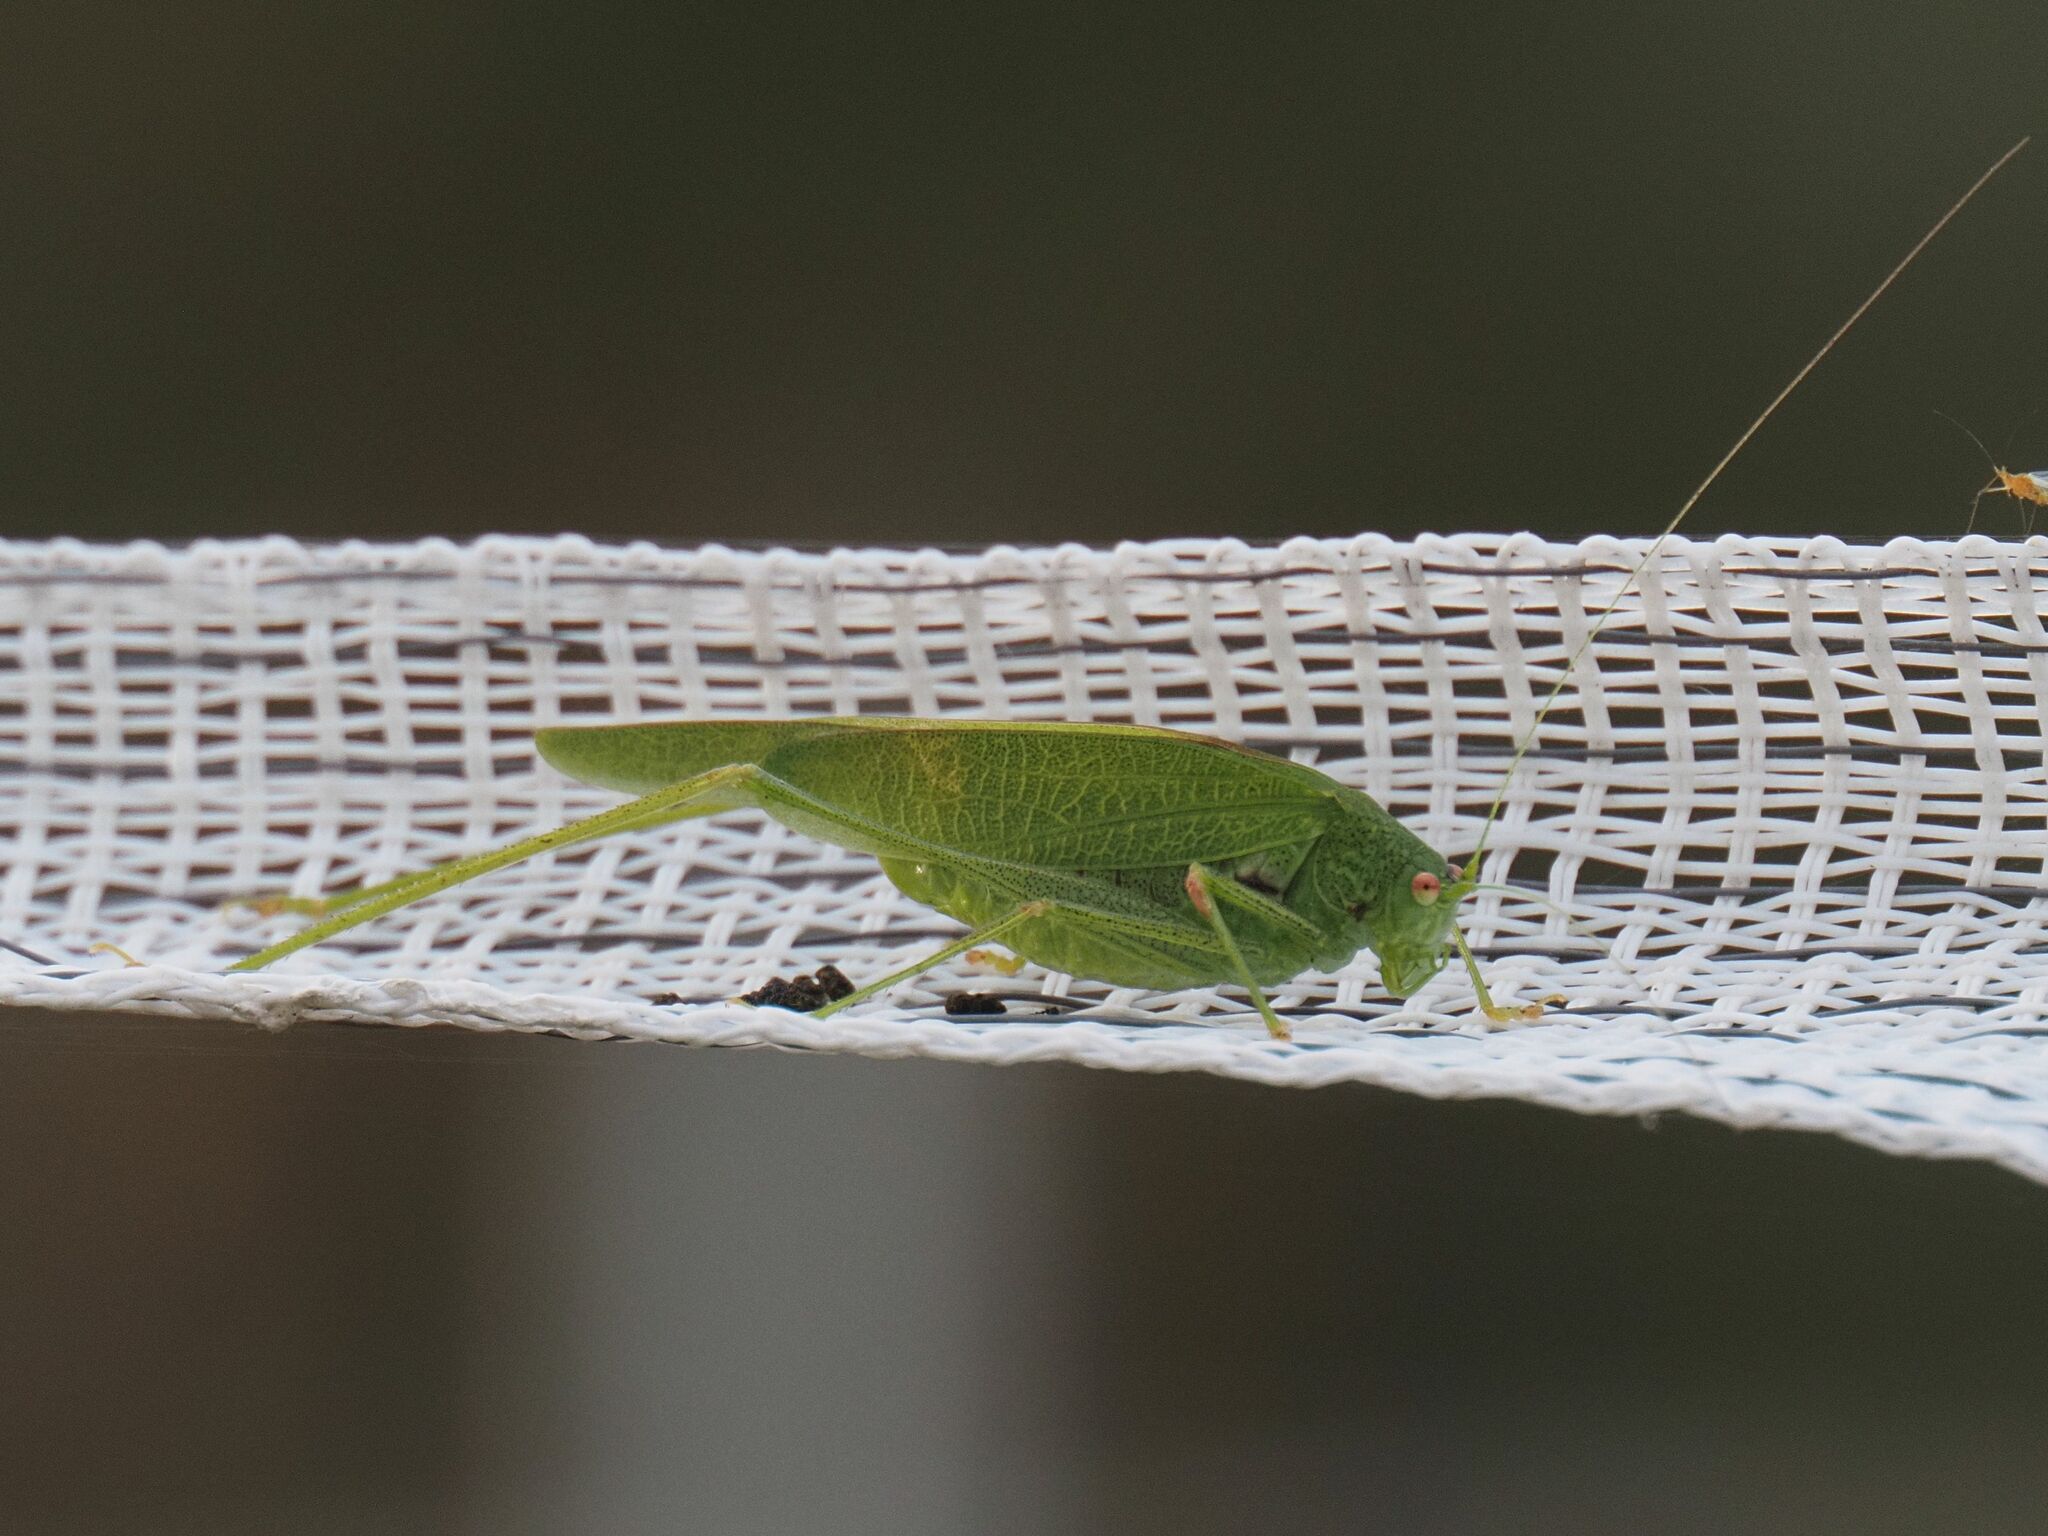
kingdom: Animalia
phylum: Arthropoda
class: Insecta
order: Orthoptera
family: Tettigoniidae
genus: Phaneroptera
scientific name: Phaneroptera nana
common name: Southern sickle bush-cricket
